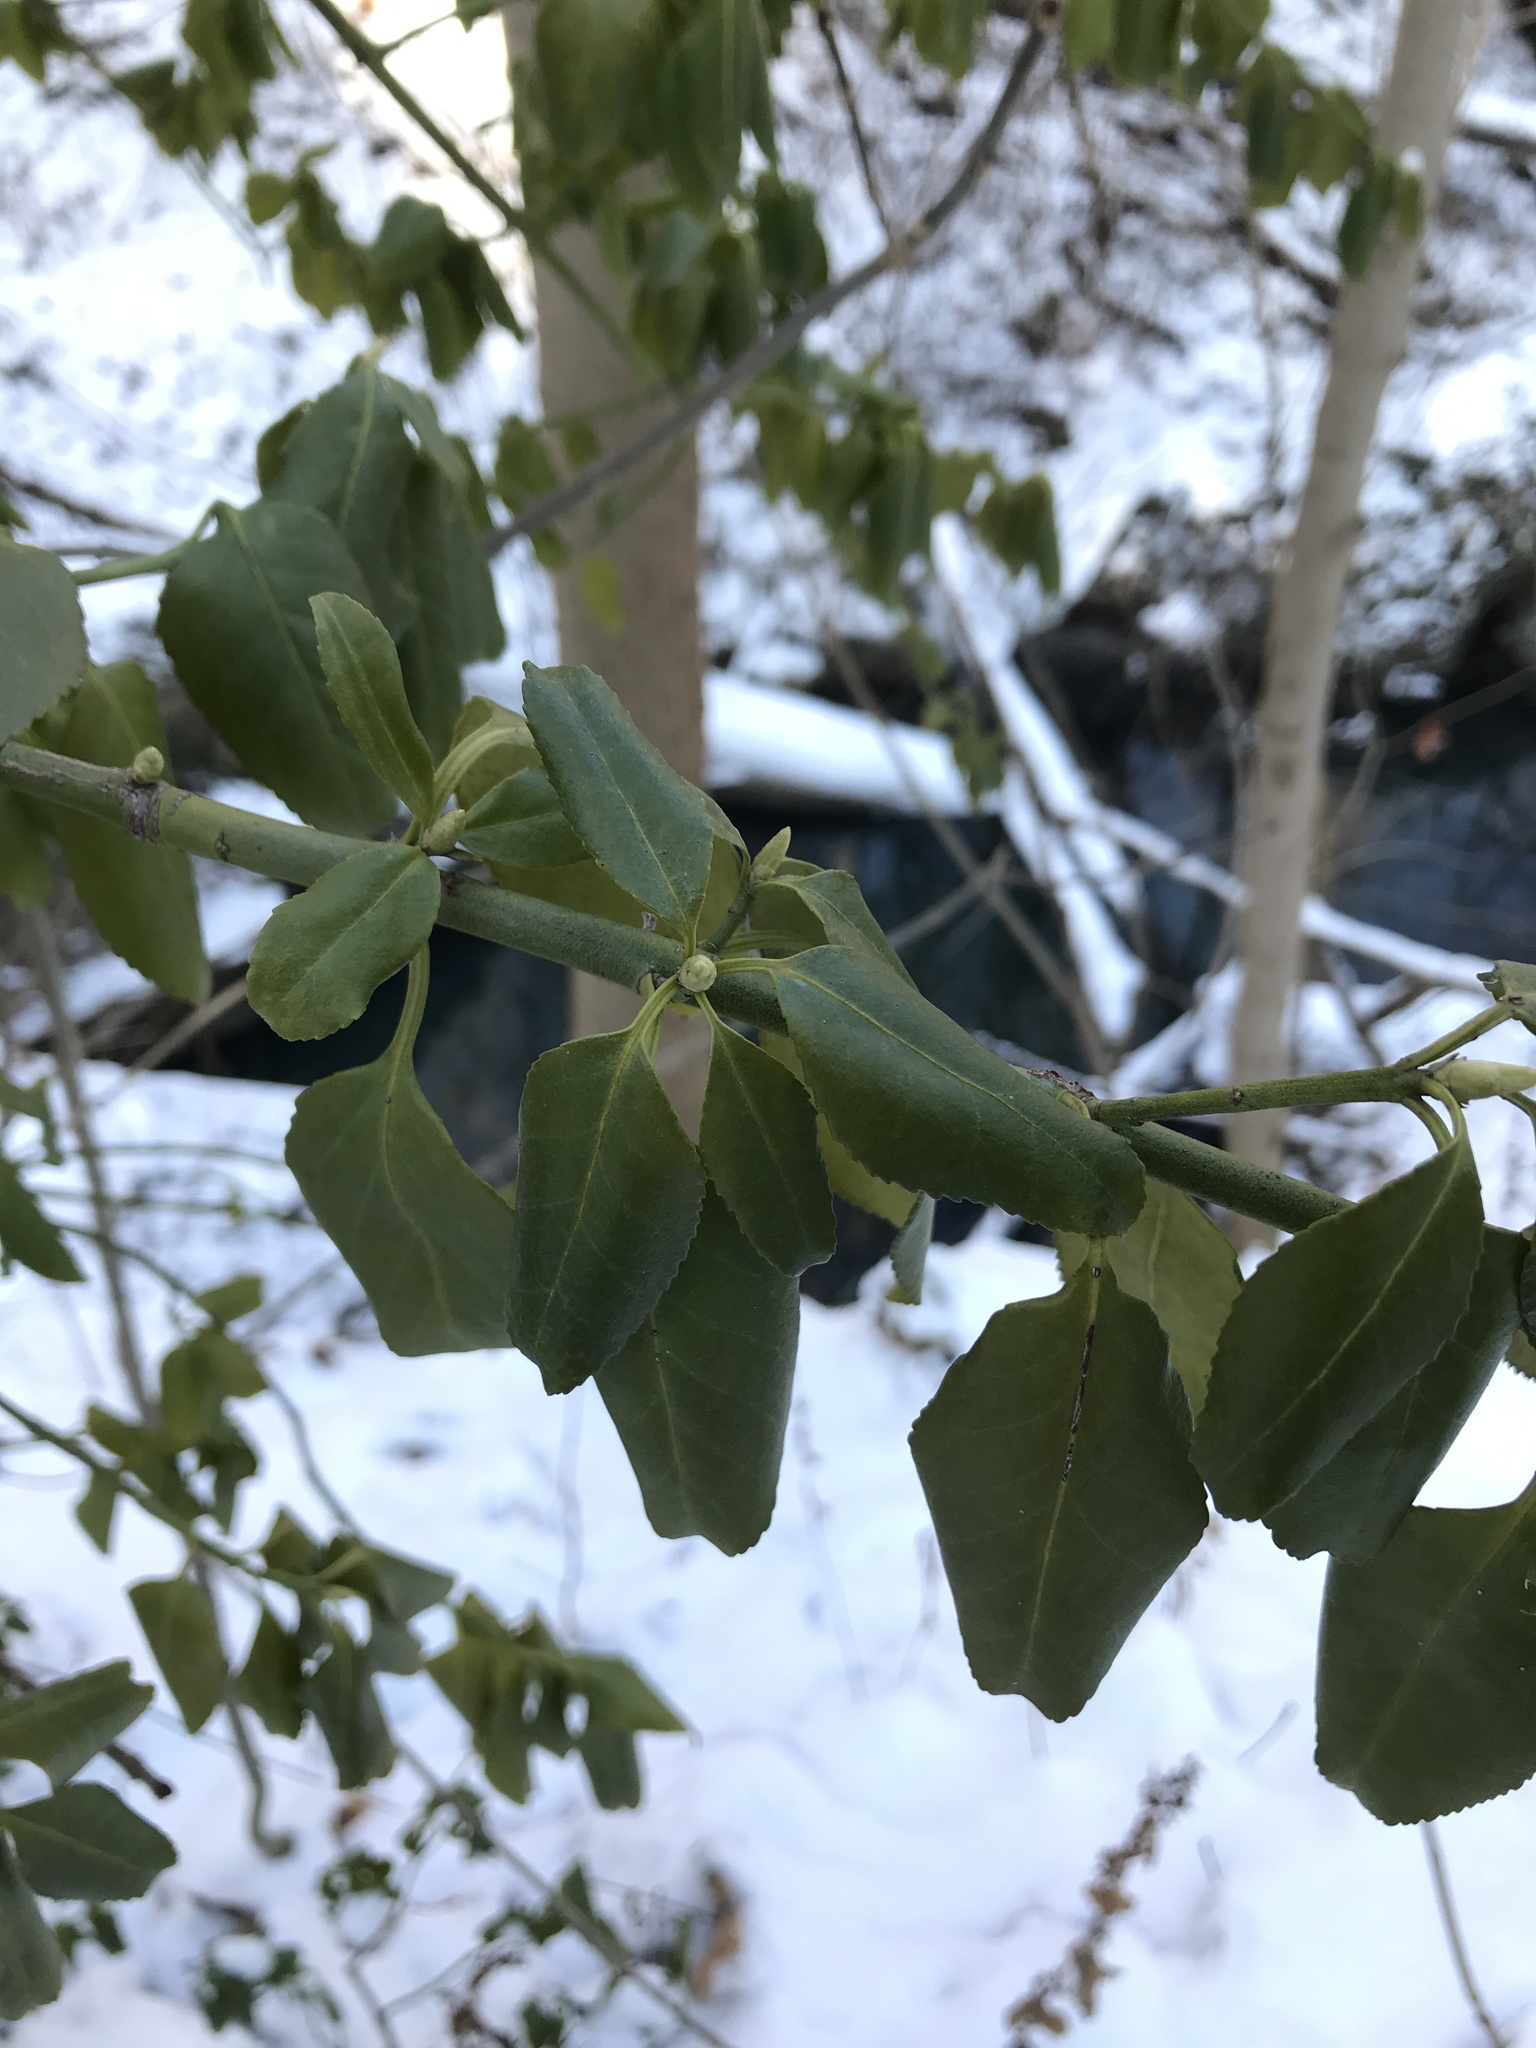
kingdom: Plantae
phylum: Tracheophyta
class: Magnoliopsida
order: Celastrales
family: Celastraceae
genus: Euonymus
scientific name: Euonymus fortunei
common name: Climbing euonymus
